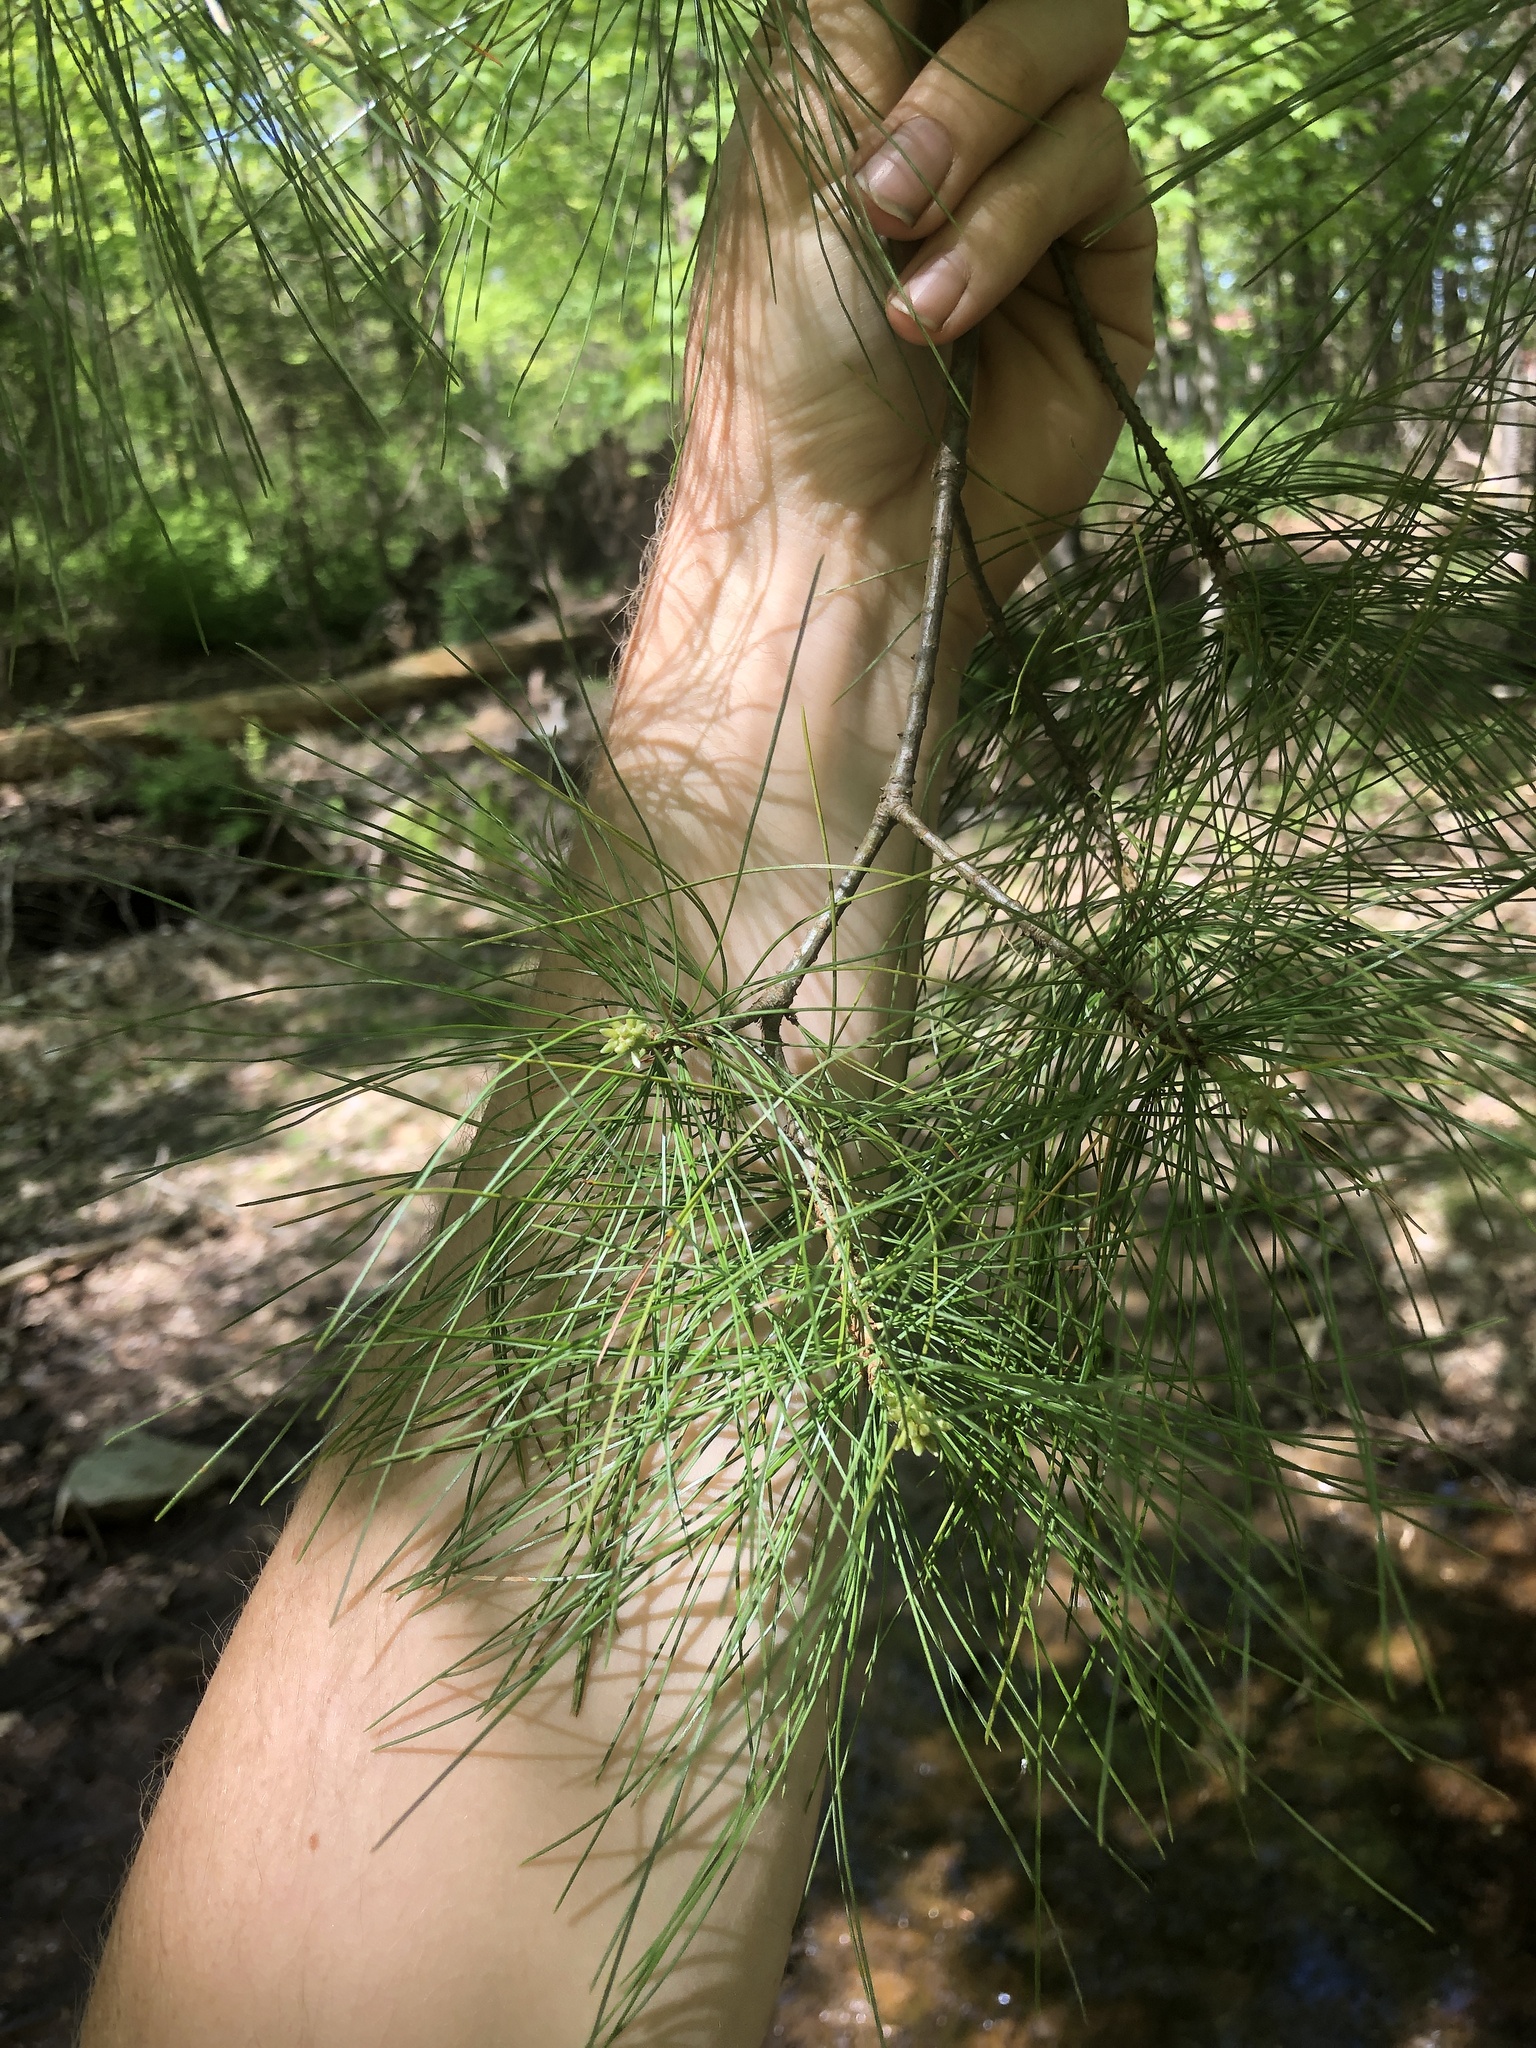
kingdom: Plantae
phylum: Tracheophyta
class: Pinopsida
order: Pinales
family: Pinaceae
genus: Pinus
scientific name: Pinus strobus
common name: Weymouth pine
